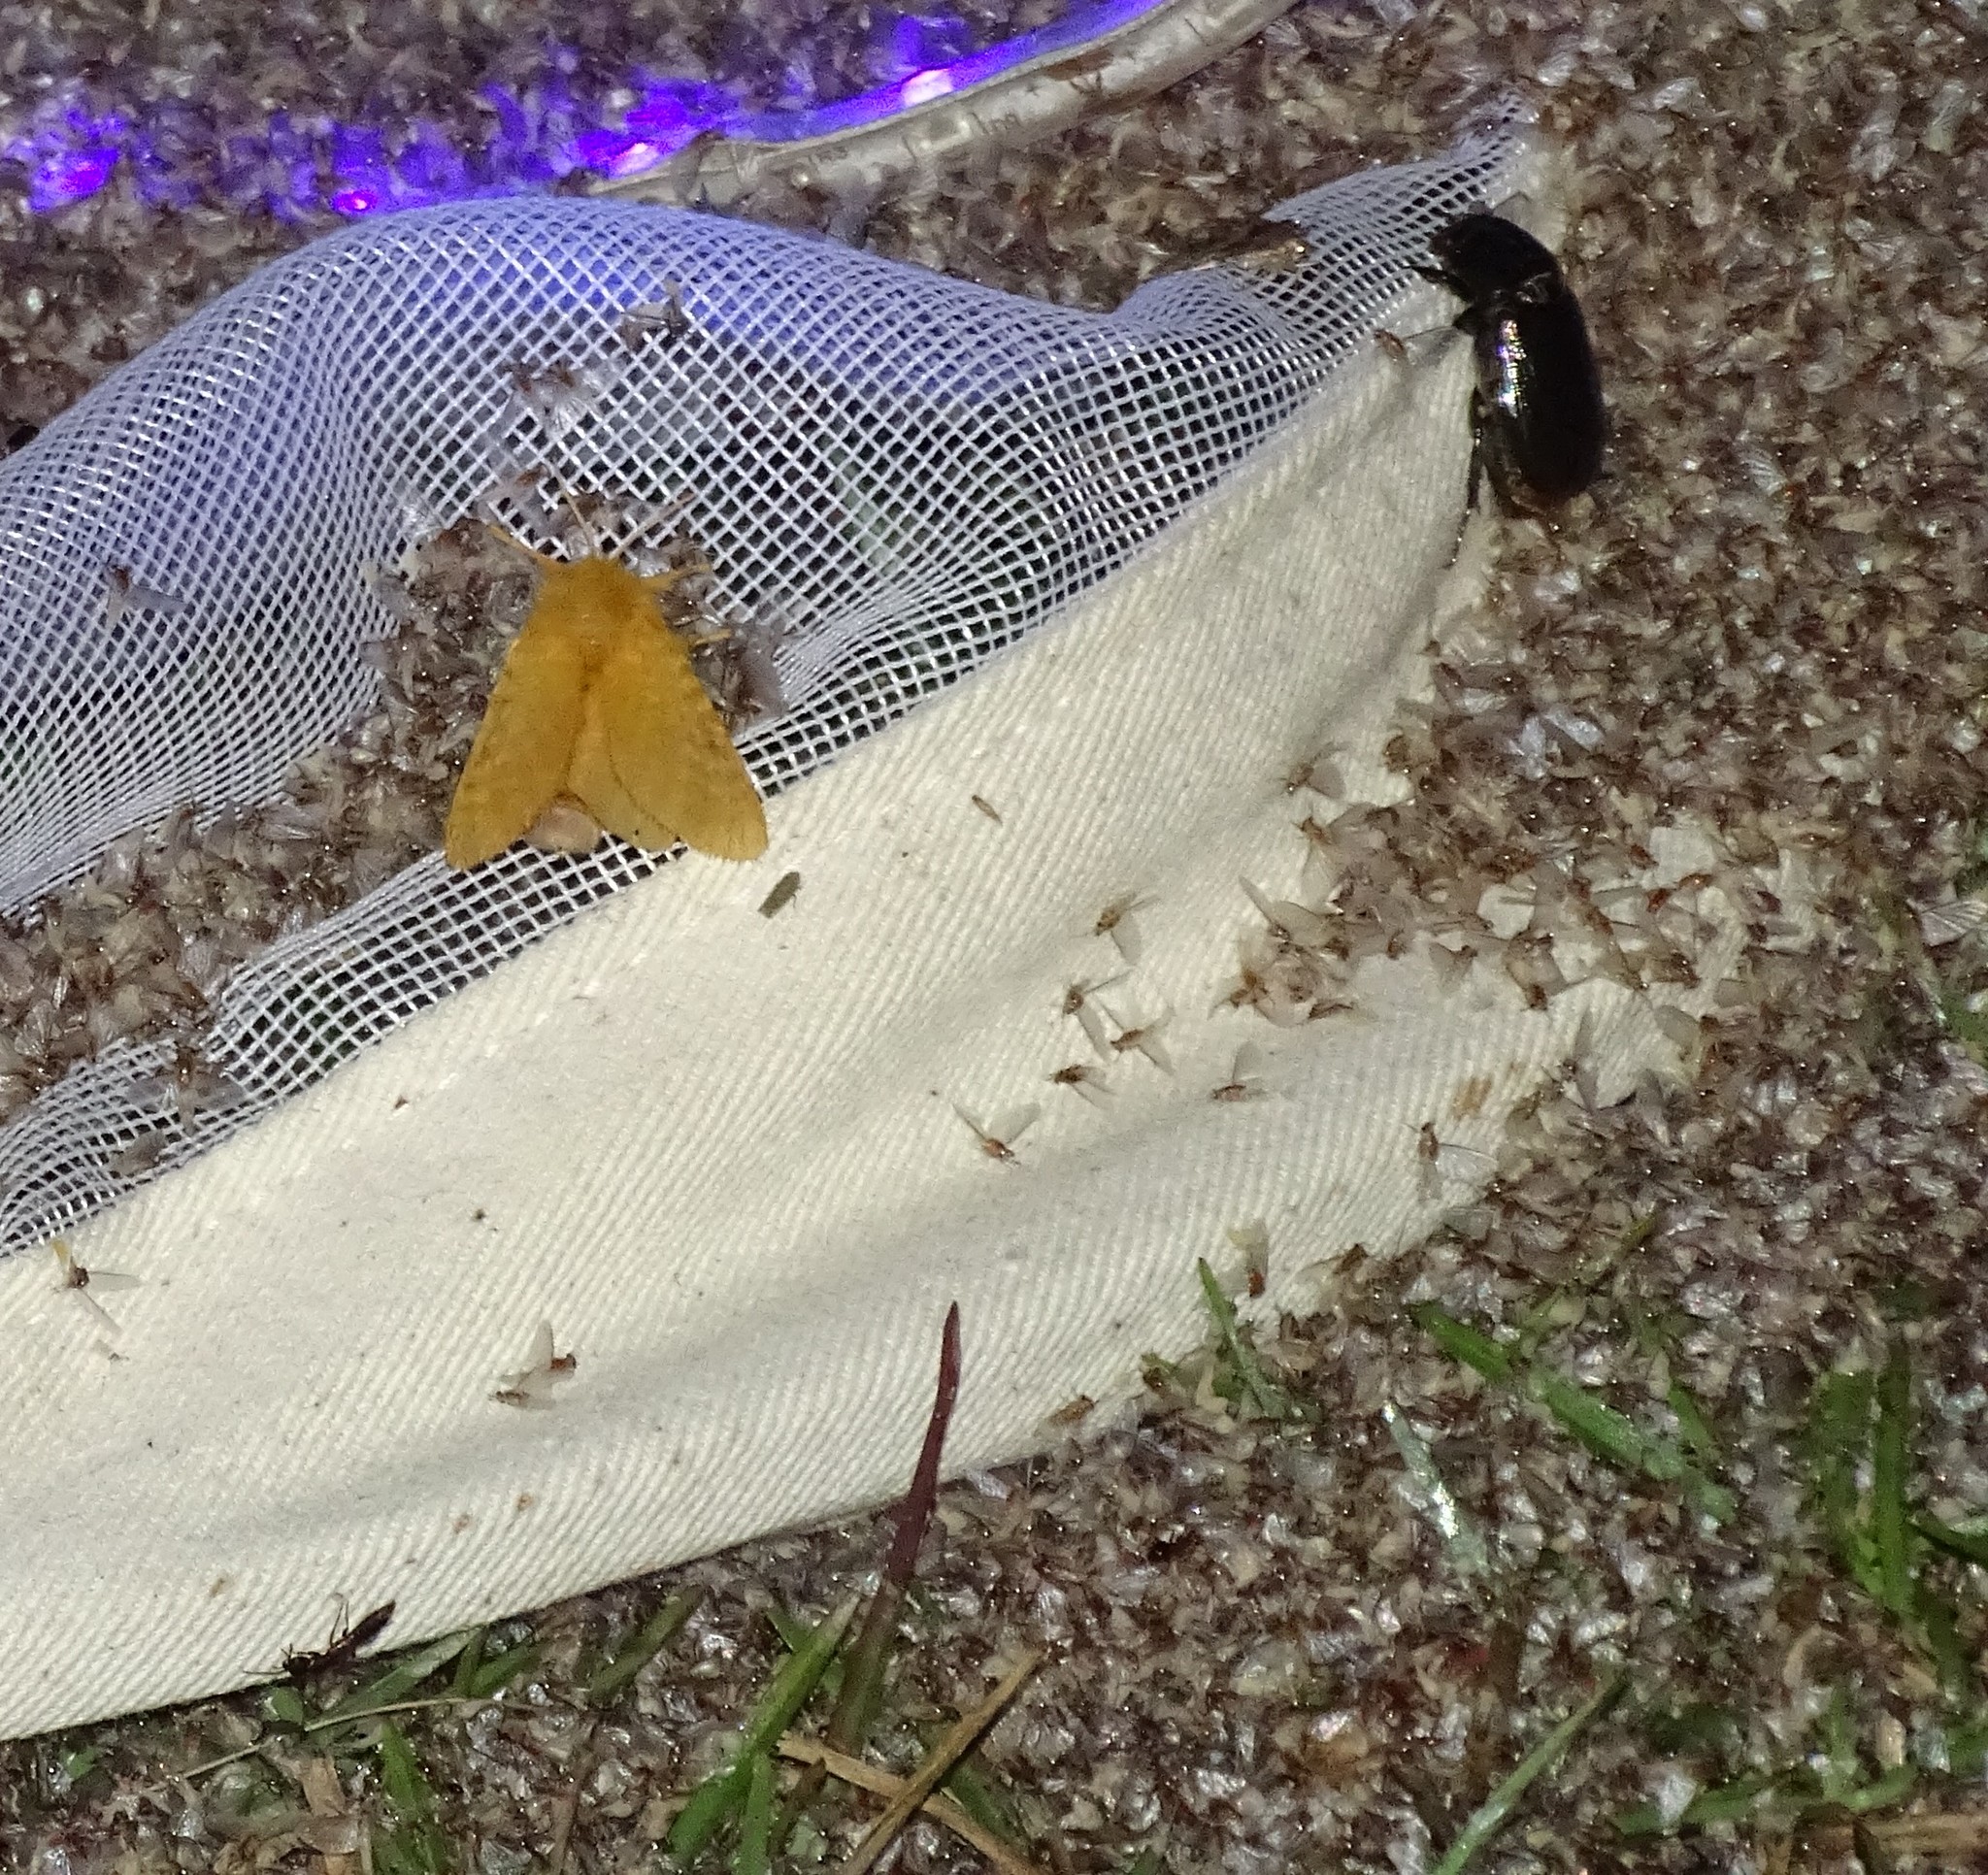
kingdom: Animalia
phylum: Arthropoda
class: Insecta
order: Lepidoptera
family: Megalopygidae
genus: Megalopyge
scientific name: Megalopyge pixidifera
